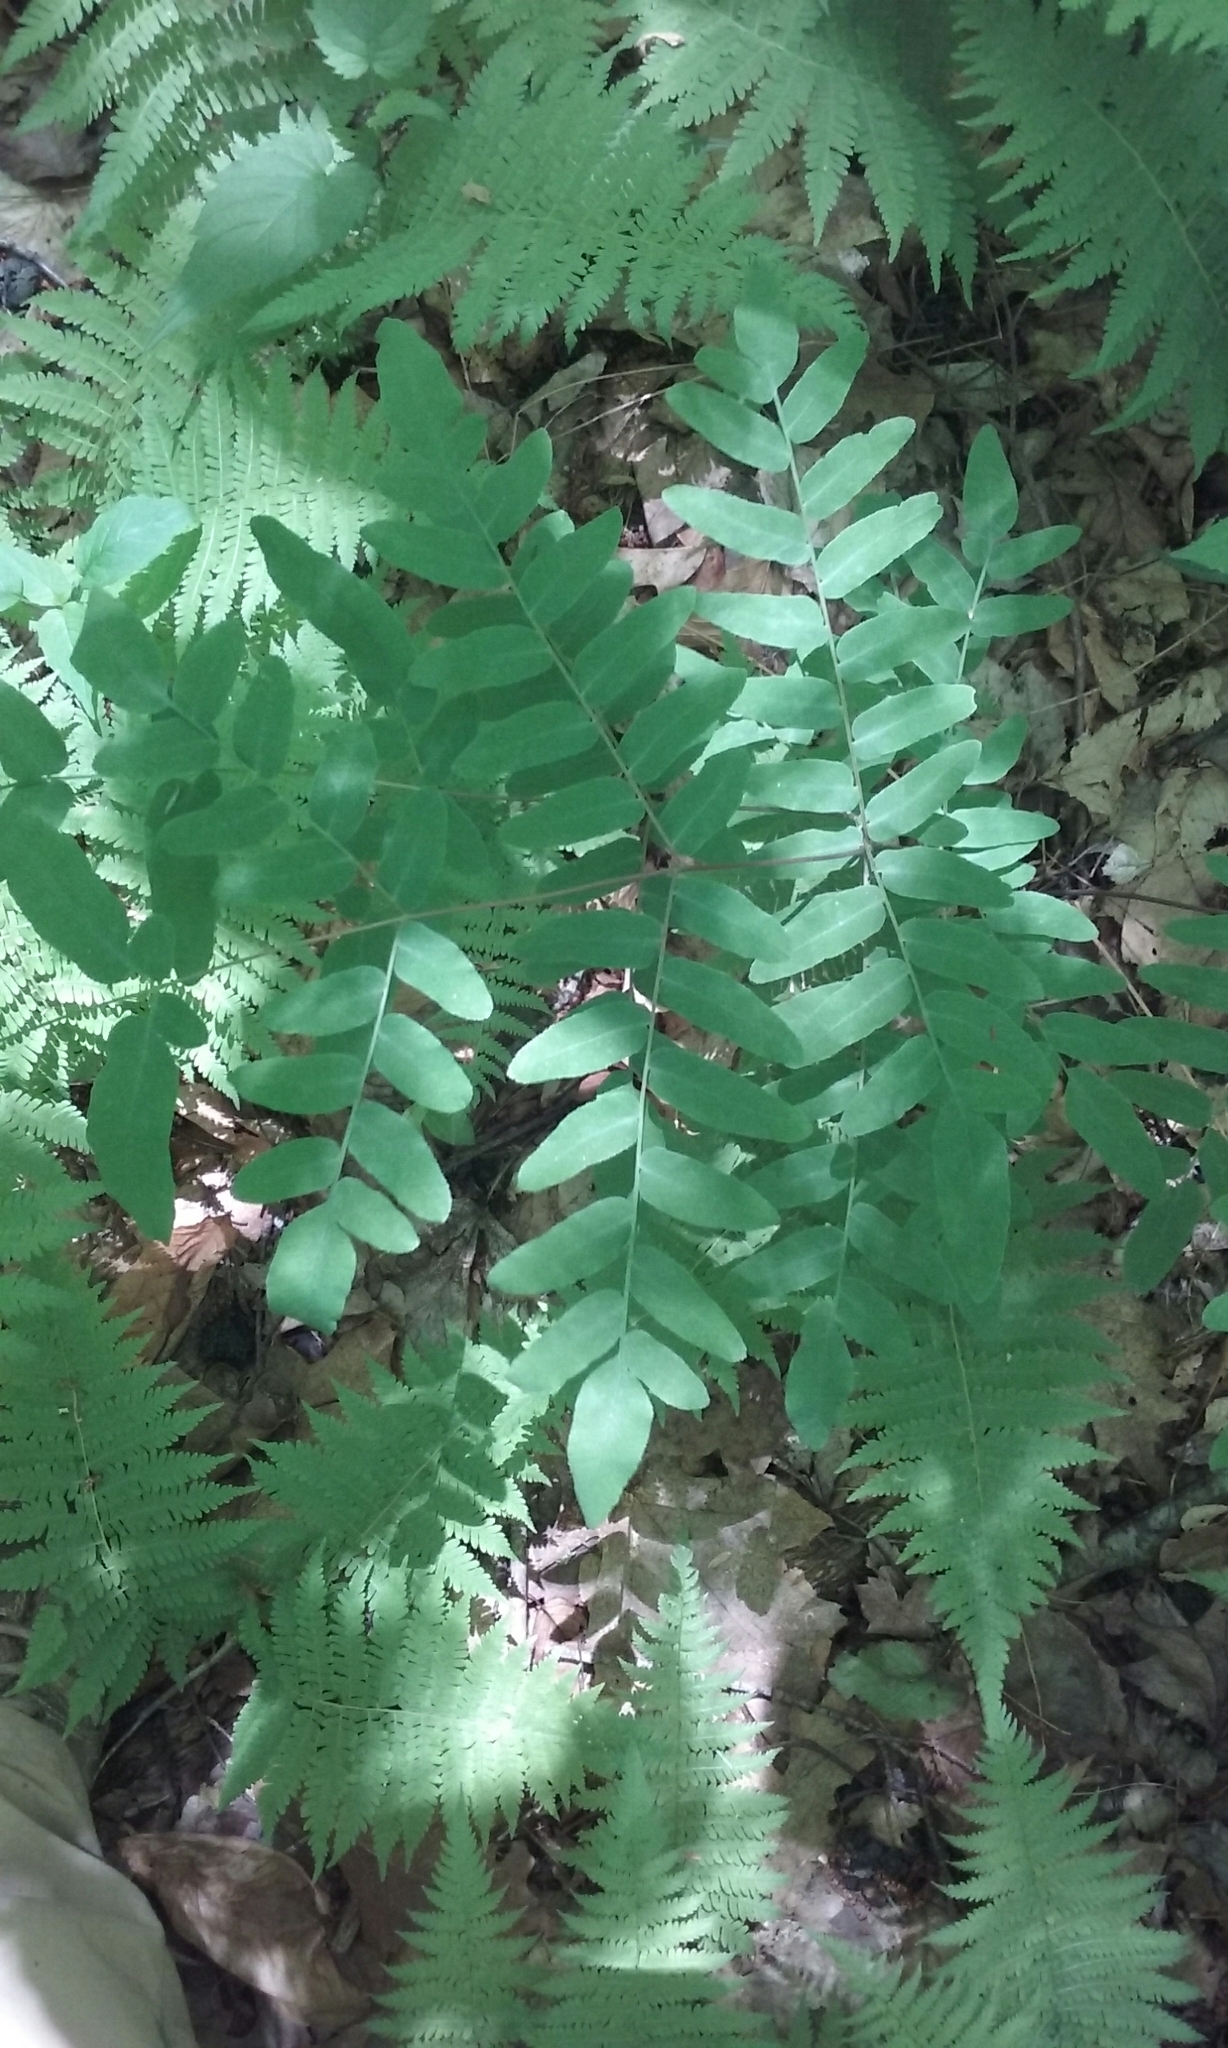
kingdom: Plantae
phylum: Tracheophyta
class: Polypodiopsida
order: Osmundales
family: Osmundaceae
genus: Osmunda
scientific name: Osmunda spectabilis
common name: American royal fern
